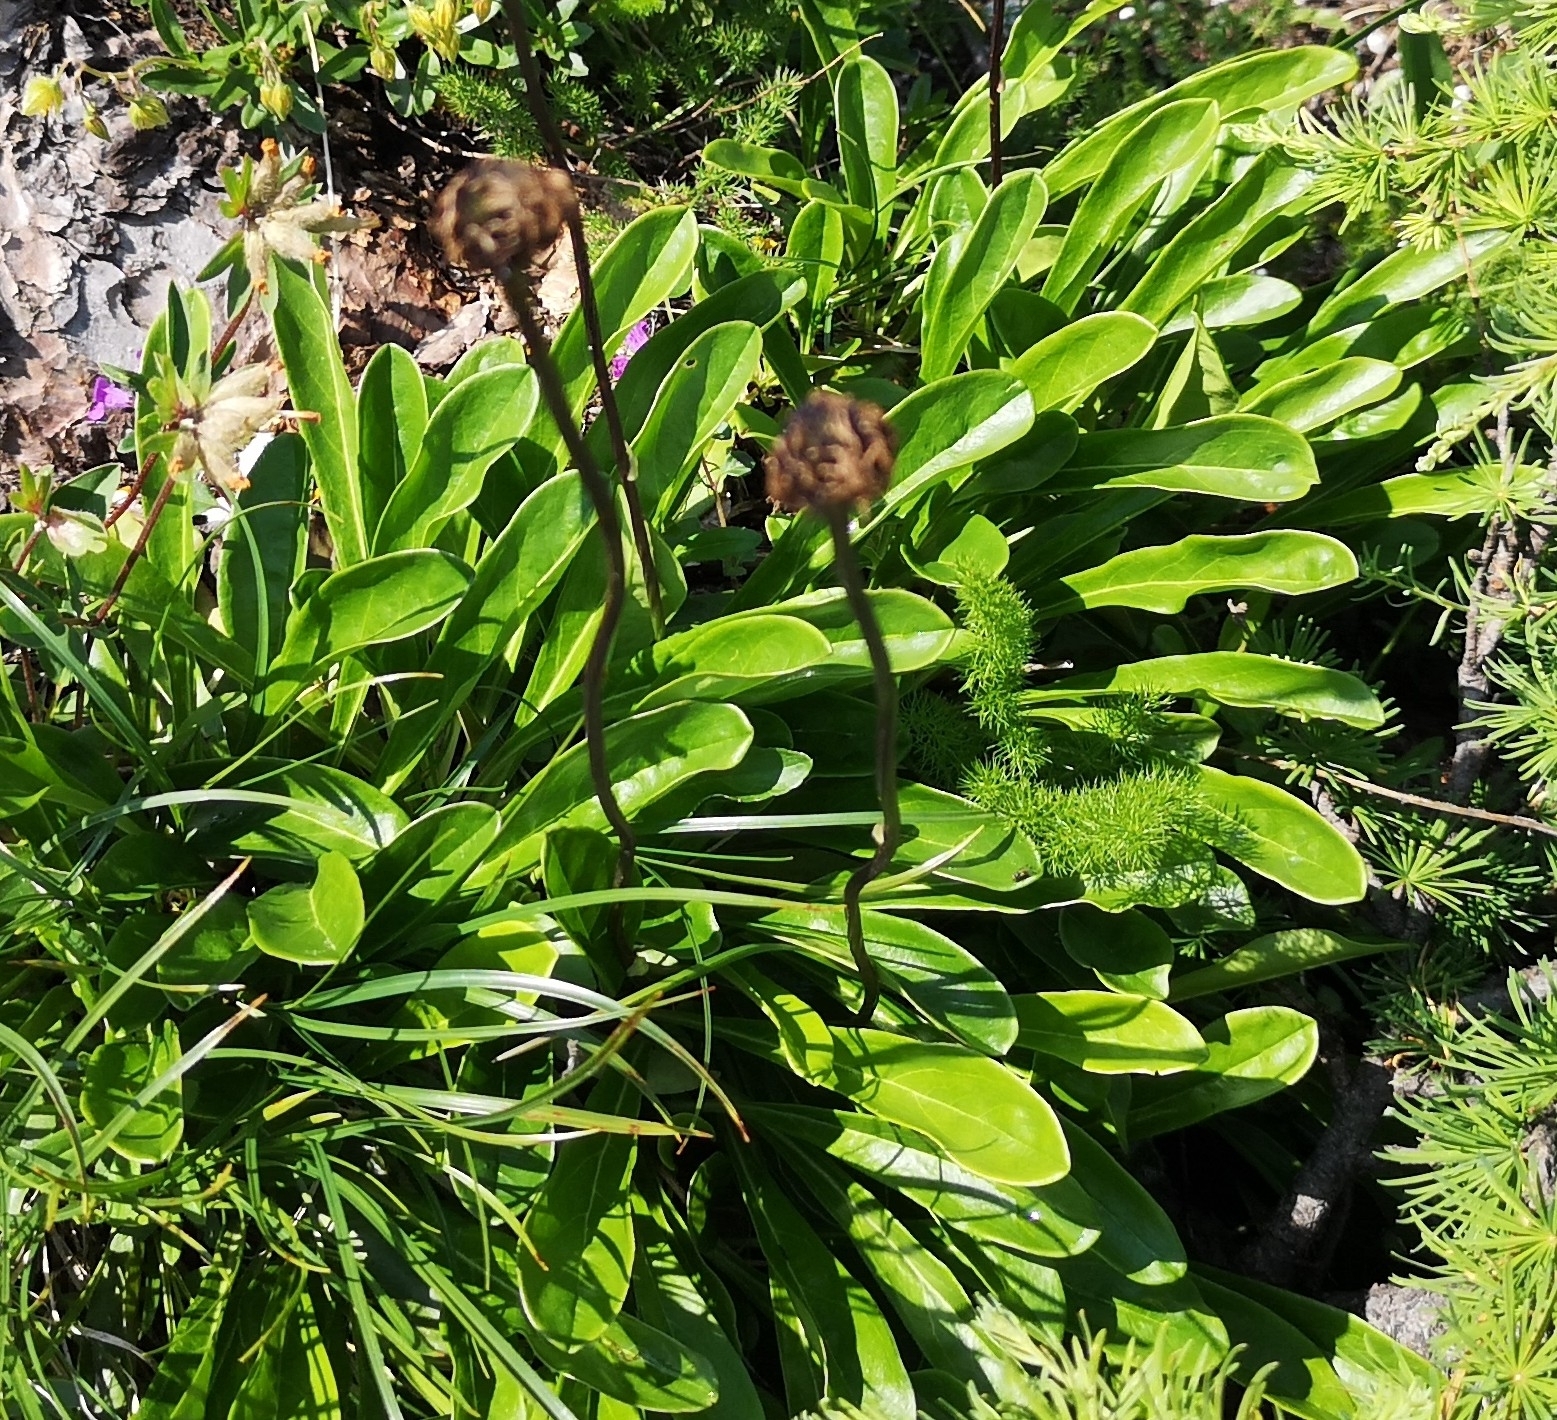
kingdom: Plantae
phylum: Tracheophyta
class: Magnoliopsida
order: Lamiales
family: Plantaginaceae
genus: Globularia
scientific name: Globularia nudicaulis
